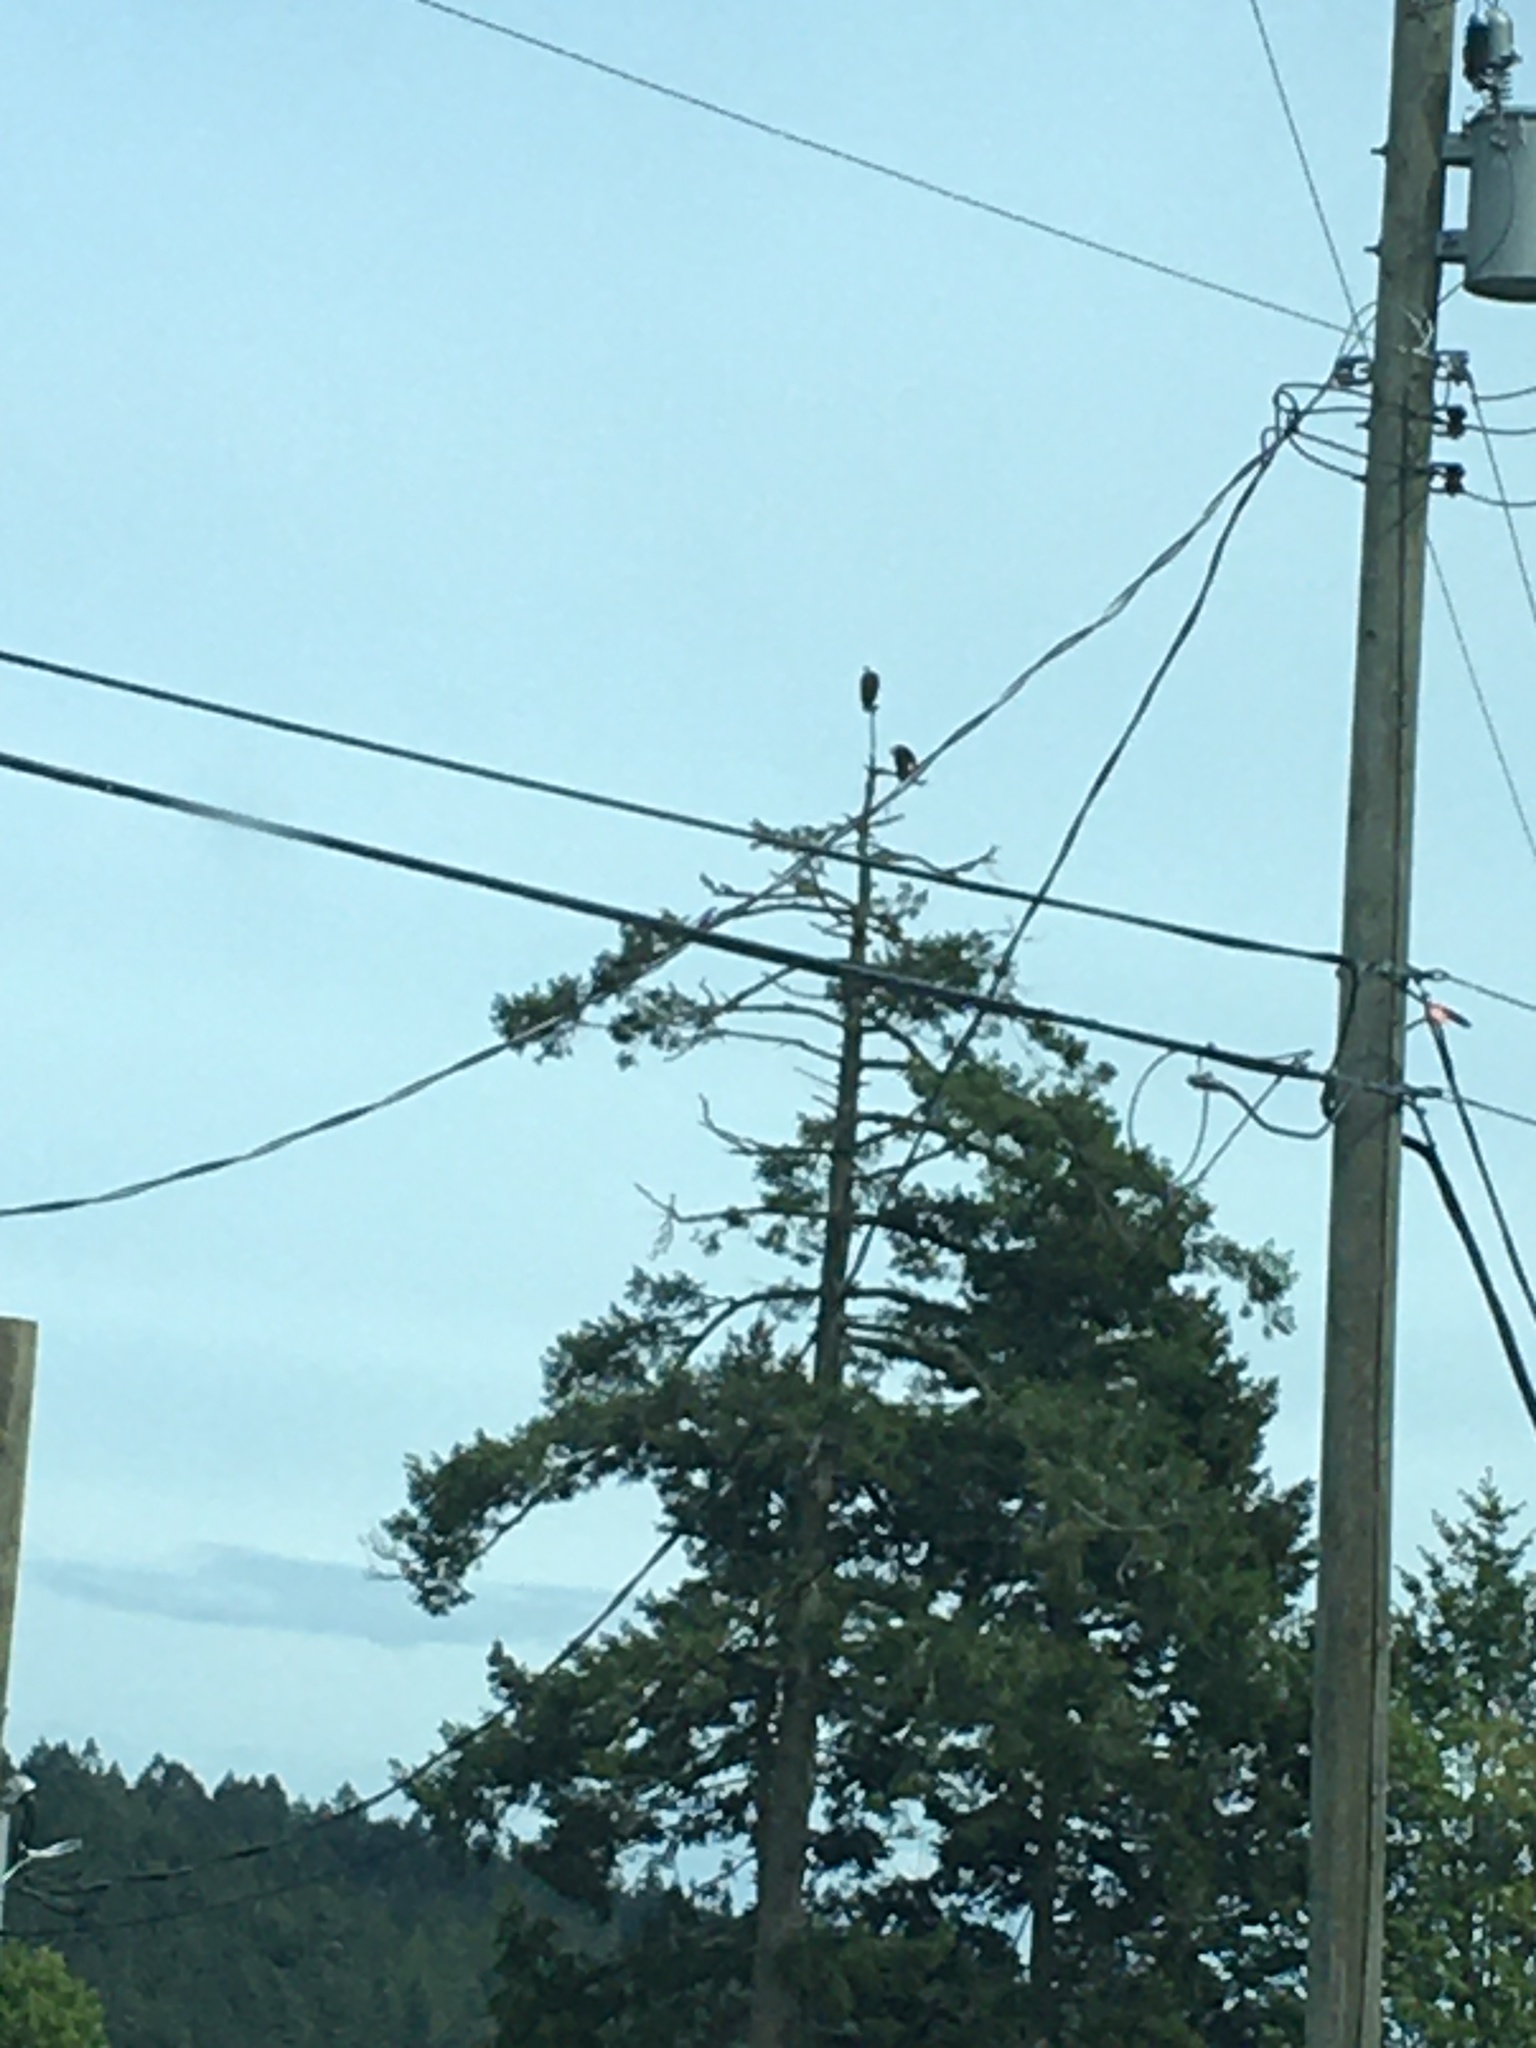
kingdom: Animalia
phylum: Chordata
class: Aves
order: Accipitriformes
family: Accipitridae
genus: Haliaeetus
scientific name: Haliaeetus leucocephalus
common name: Bald eagle
